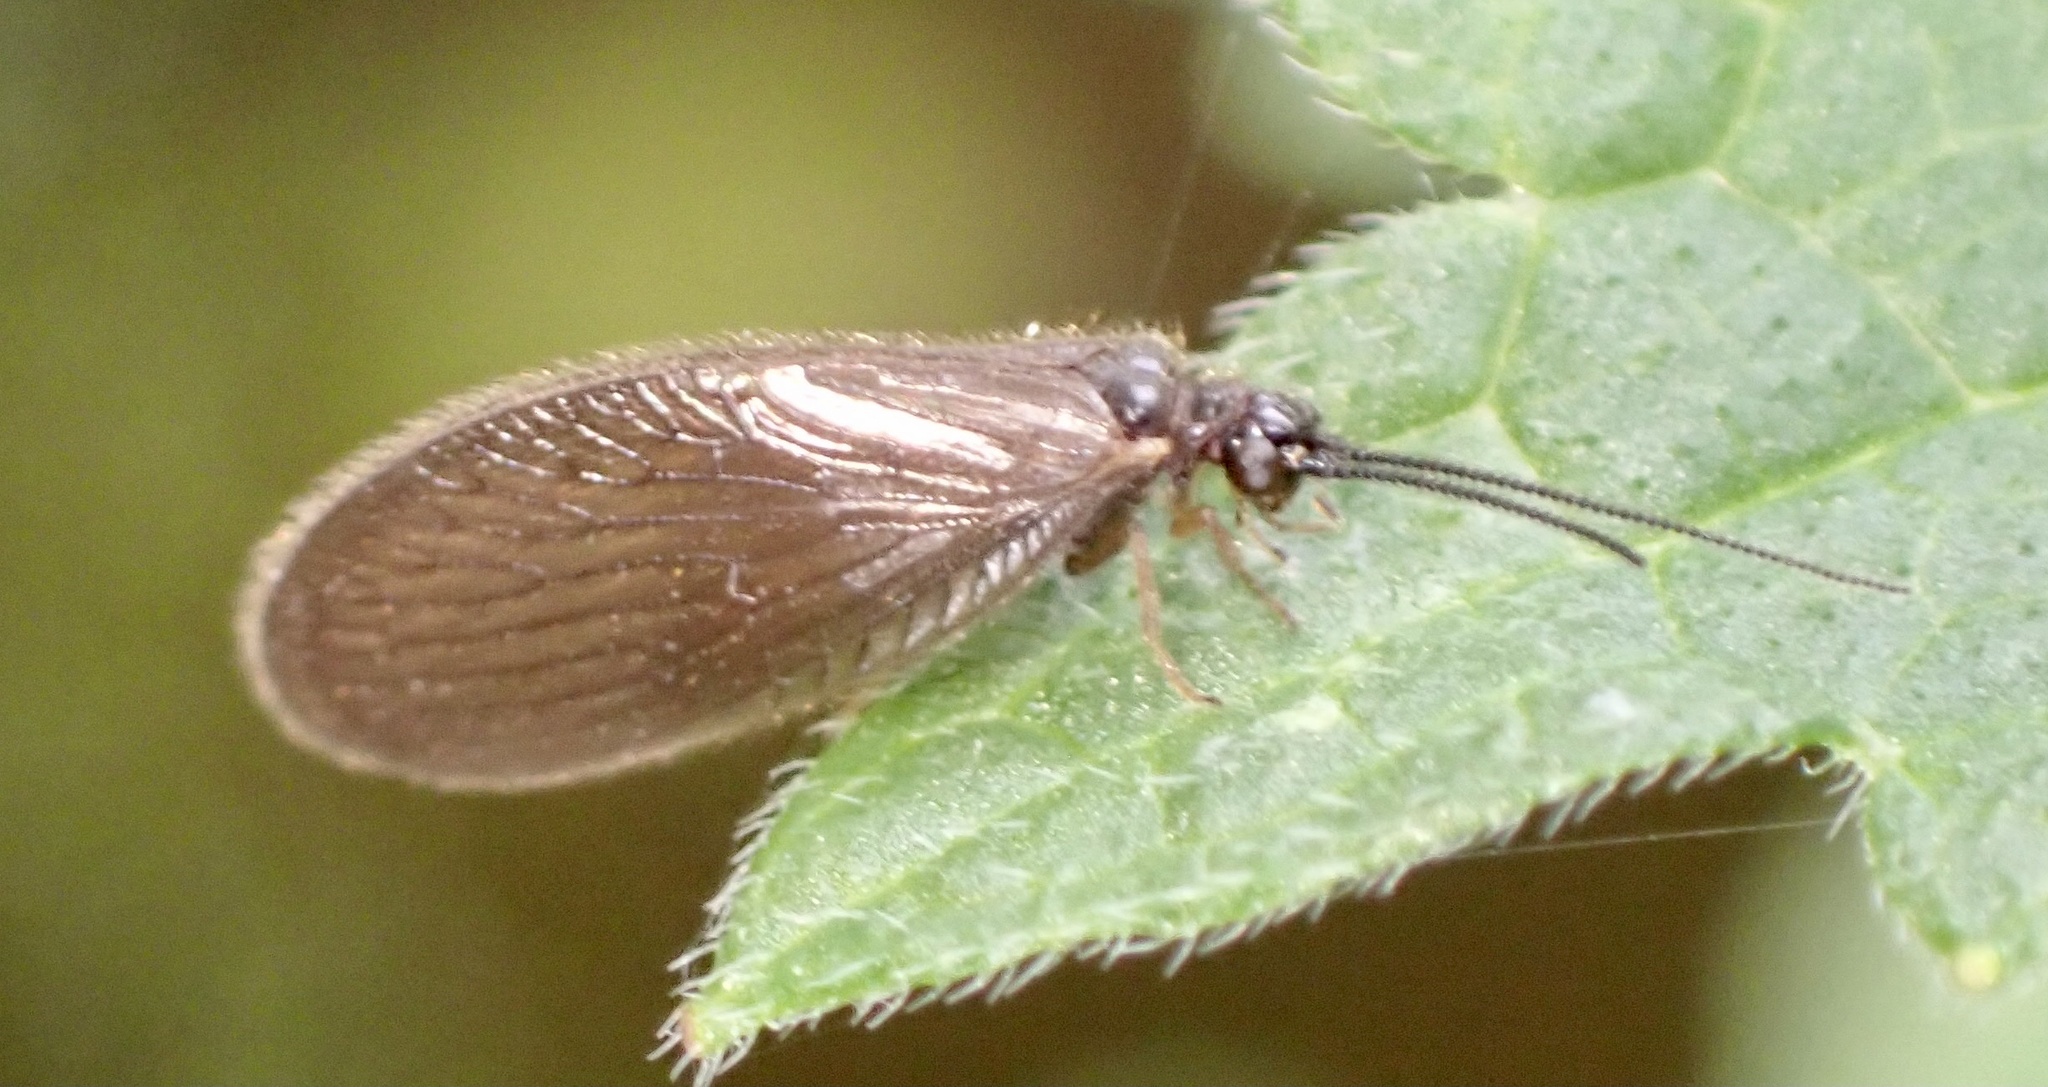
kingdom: Animalia
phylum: Arthropoda
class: Insecta
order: Neuroptera
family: Sisyridae
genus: Sisyra
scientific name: Sisyra nigra
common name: Black spongillafly
